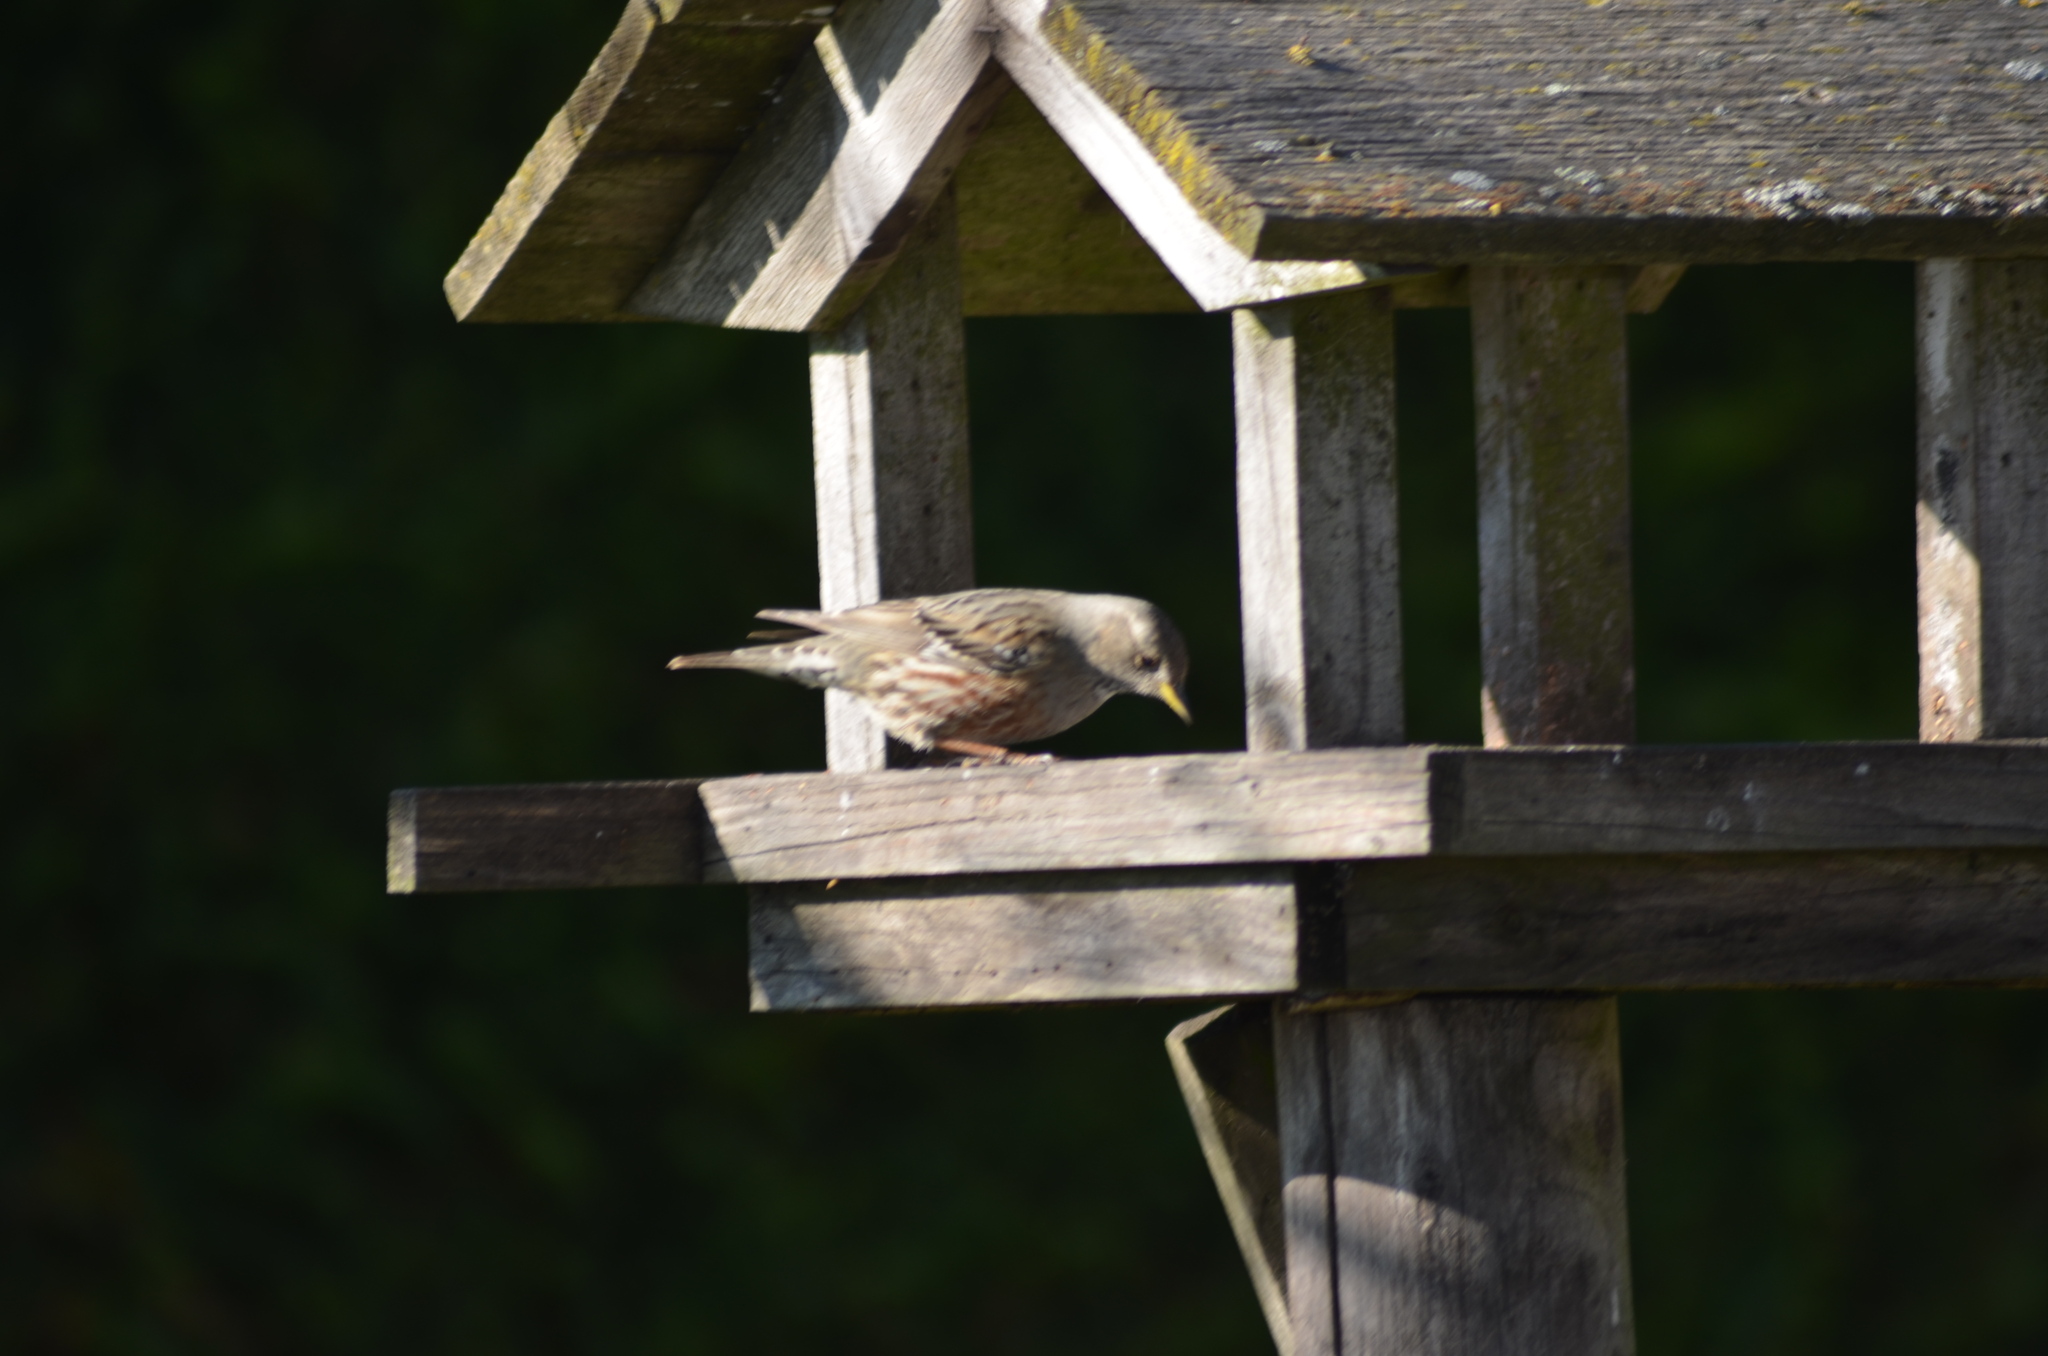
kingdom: Animalia
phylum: Chordata
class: Aves
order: Passeriformes
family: Prunellidae
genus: Prunella
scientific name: Prunella collaris
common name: Alpine accentor
